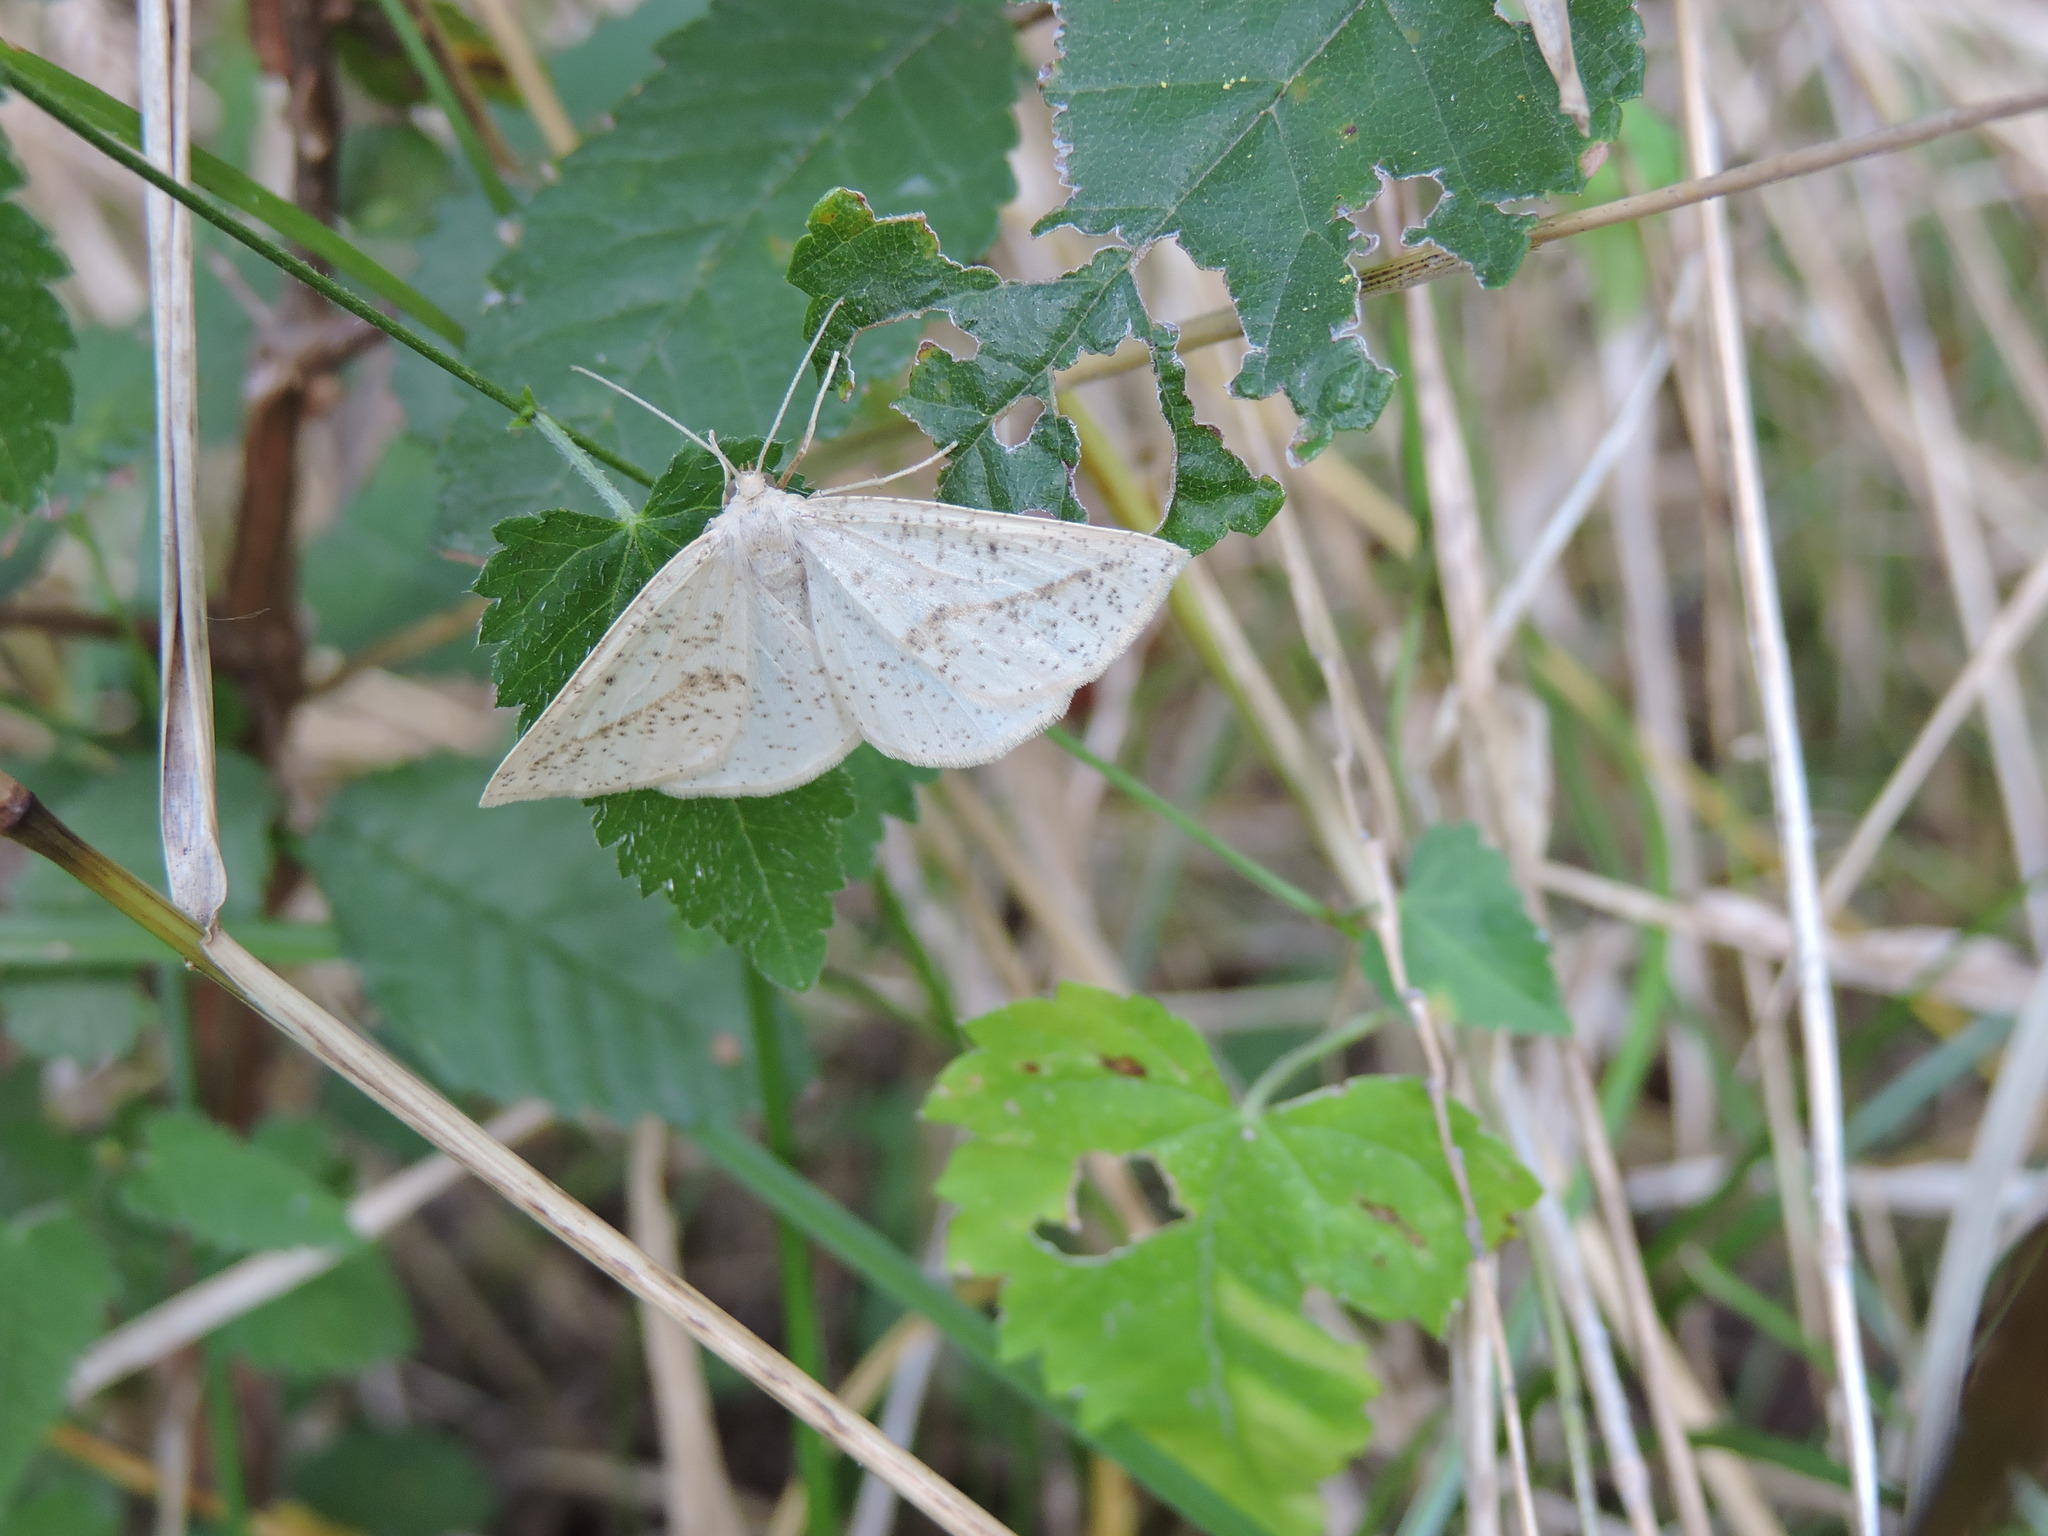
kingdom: Animalia
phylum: Arthropoda
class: Insecta
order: Lepidoptera
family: Geometridae
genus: Lychnosea
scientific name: Lychnosea intermicata
